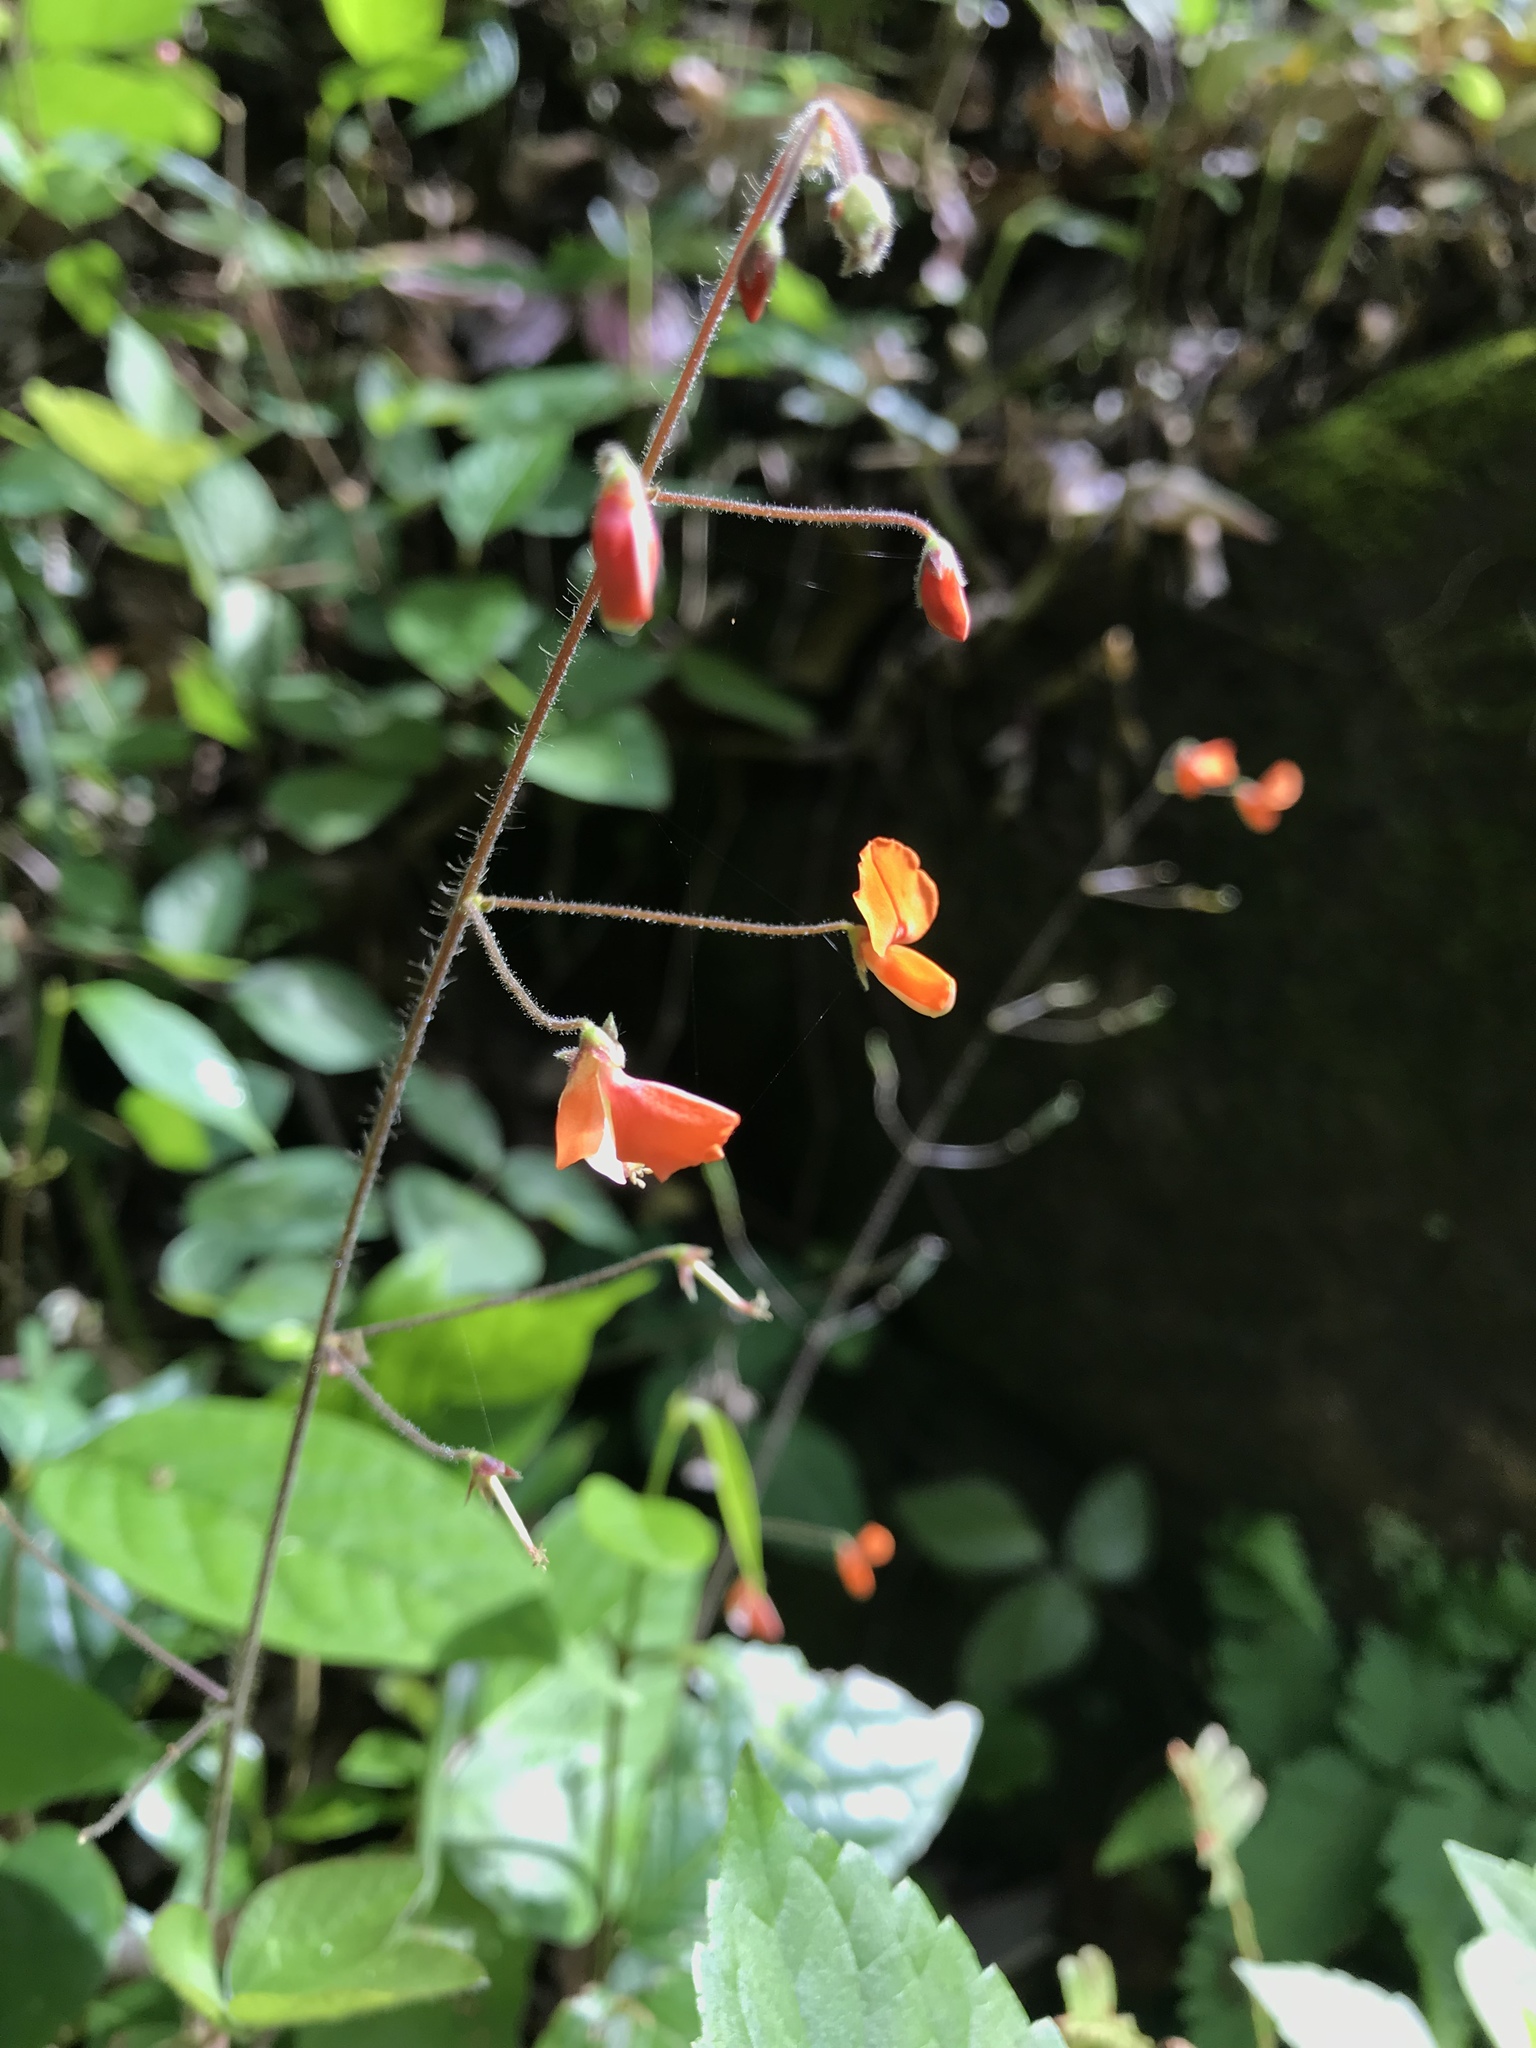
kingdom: Plantae
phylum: Tracheophyta
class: Magnoliopsida
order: Fabales
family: Fabaceae
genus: Hylodesmum
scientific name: Hylodesmum repandum
